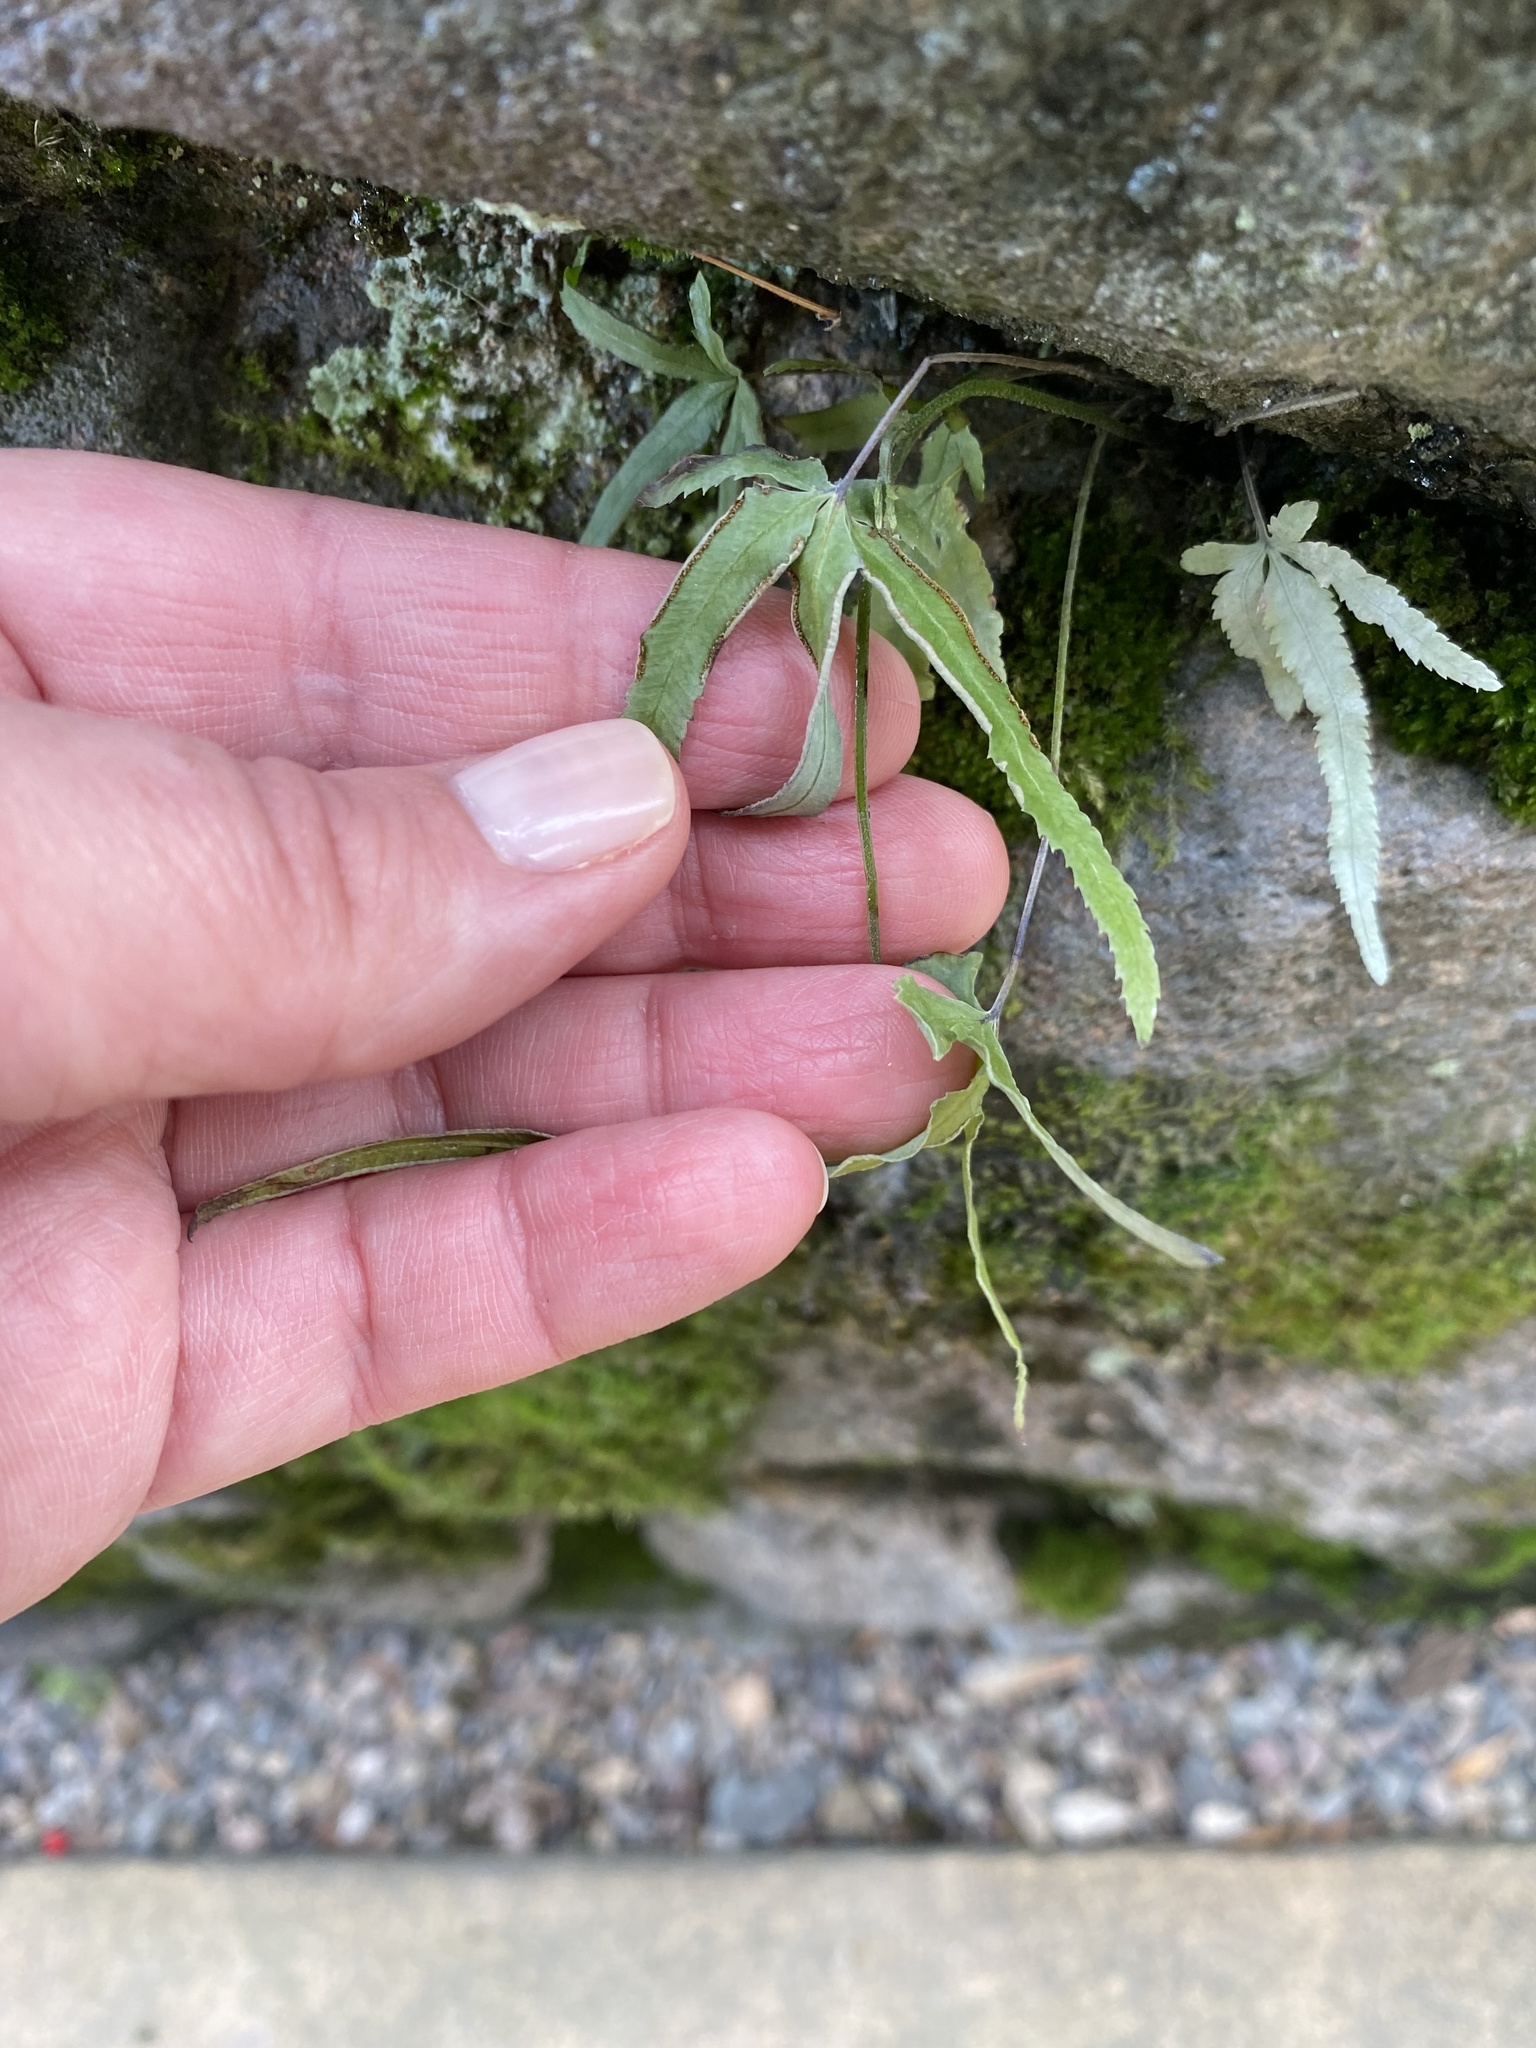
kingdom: Plantae
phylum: Tracheophyta
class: Polypodiopsida
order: Polypodiales
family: Pteridaceae
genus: Pteris
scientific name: Pteris multifida
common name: Spider brake
